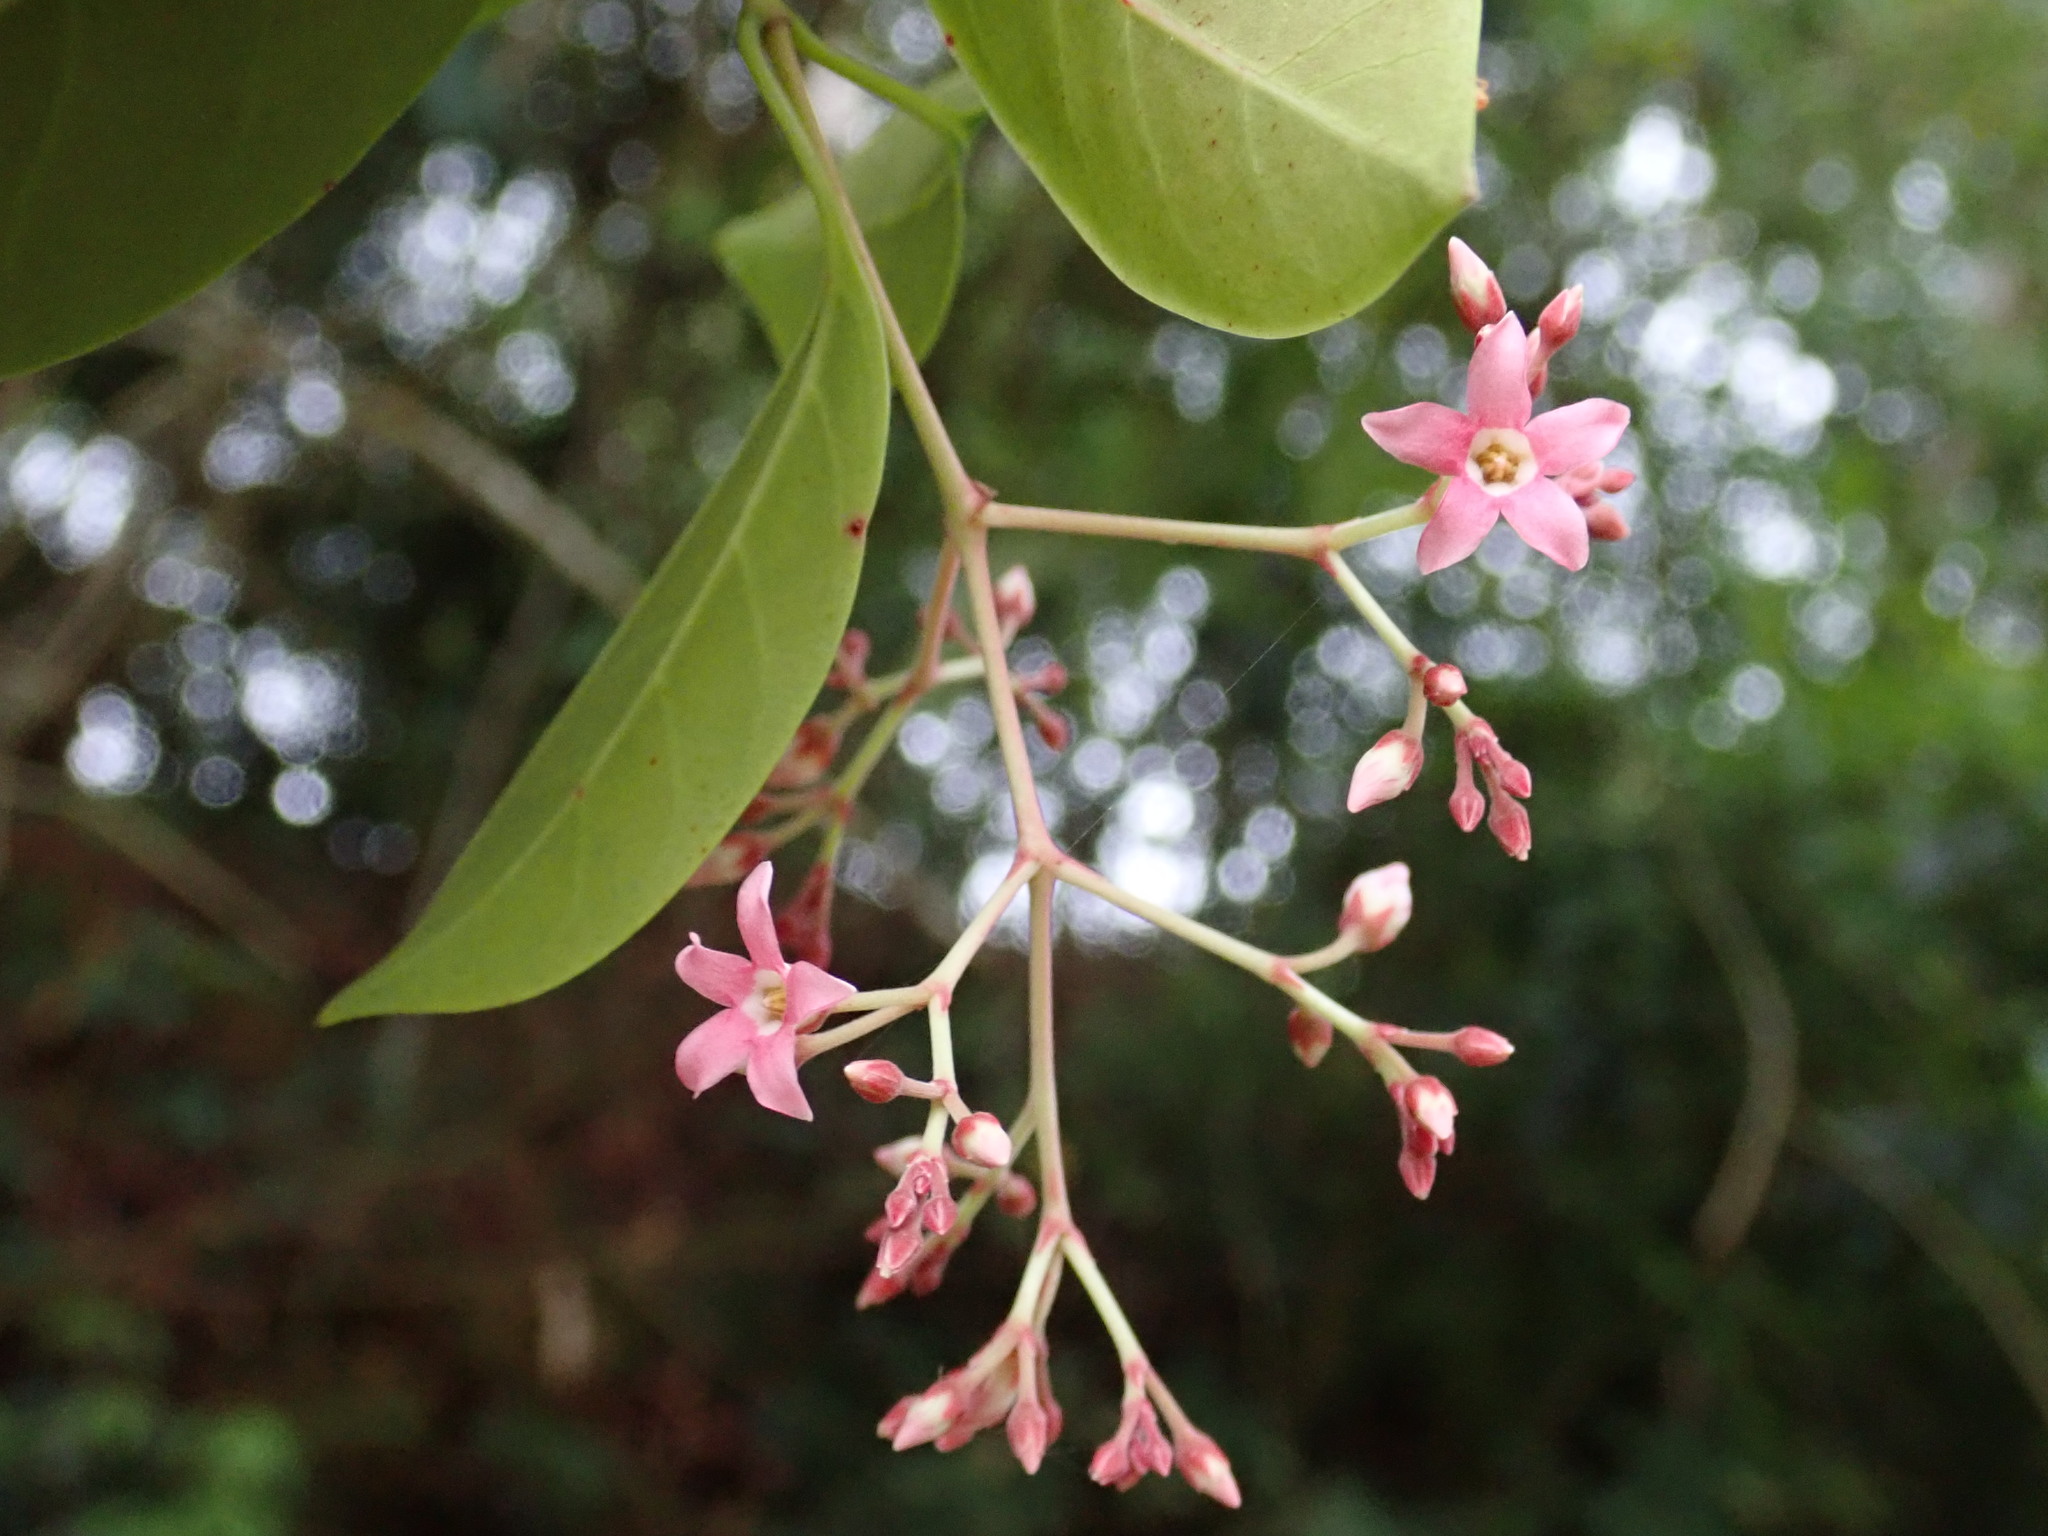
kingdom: Plantae
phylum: Tracheophyta
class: Magnoliopsida
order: Gentianales
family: Apocynaceae
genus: Urceola
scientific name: Urceola rosea
